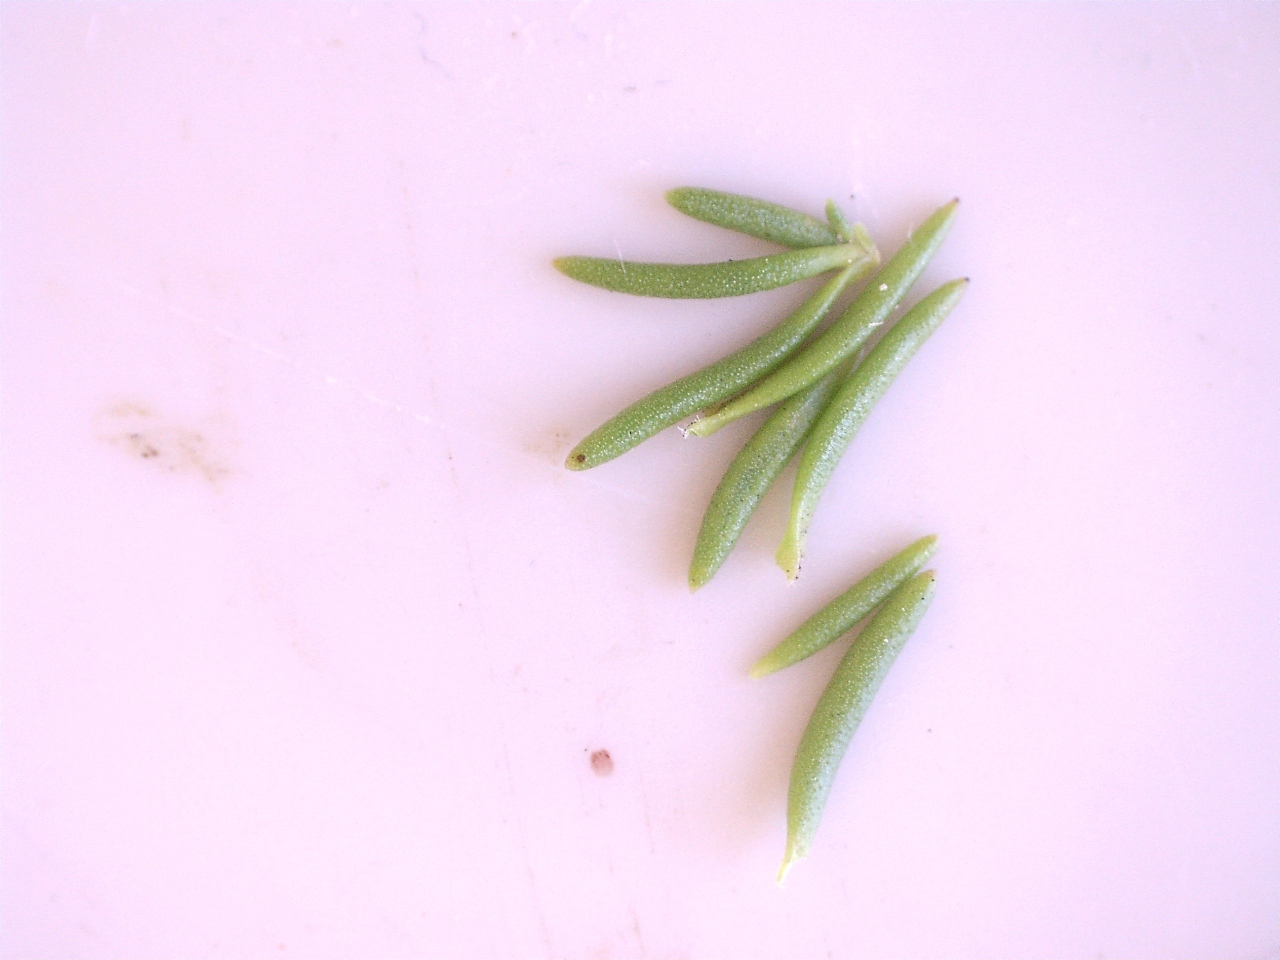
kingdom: Plantae
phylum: Tracheophyta
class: Magnoliopsida
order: Lamiales
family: Scrophulariaceae
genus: Selago
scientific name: Selago canescens
